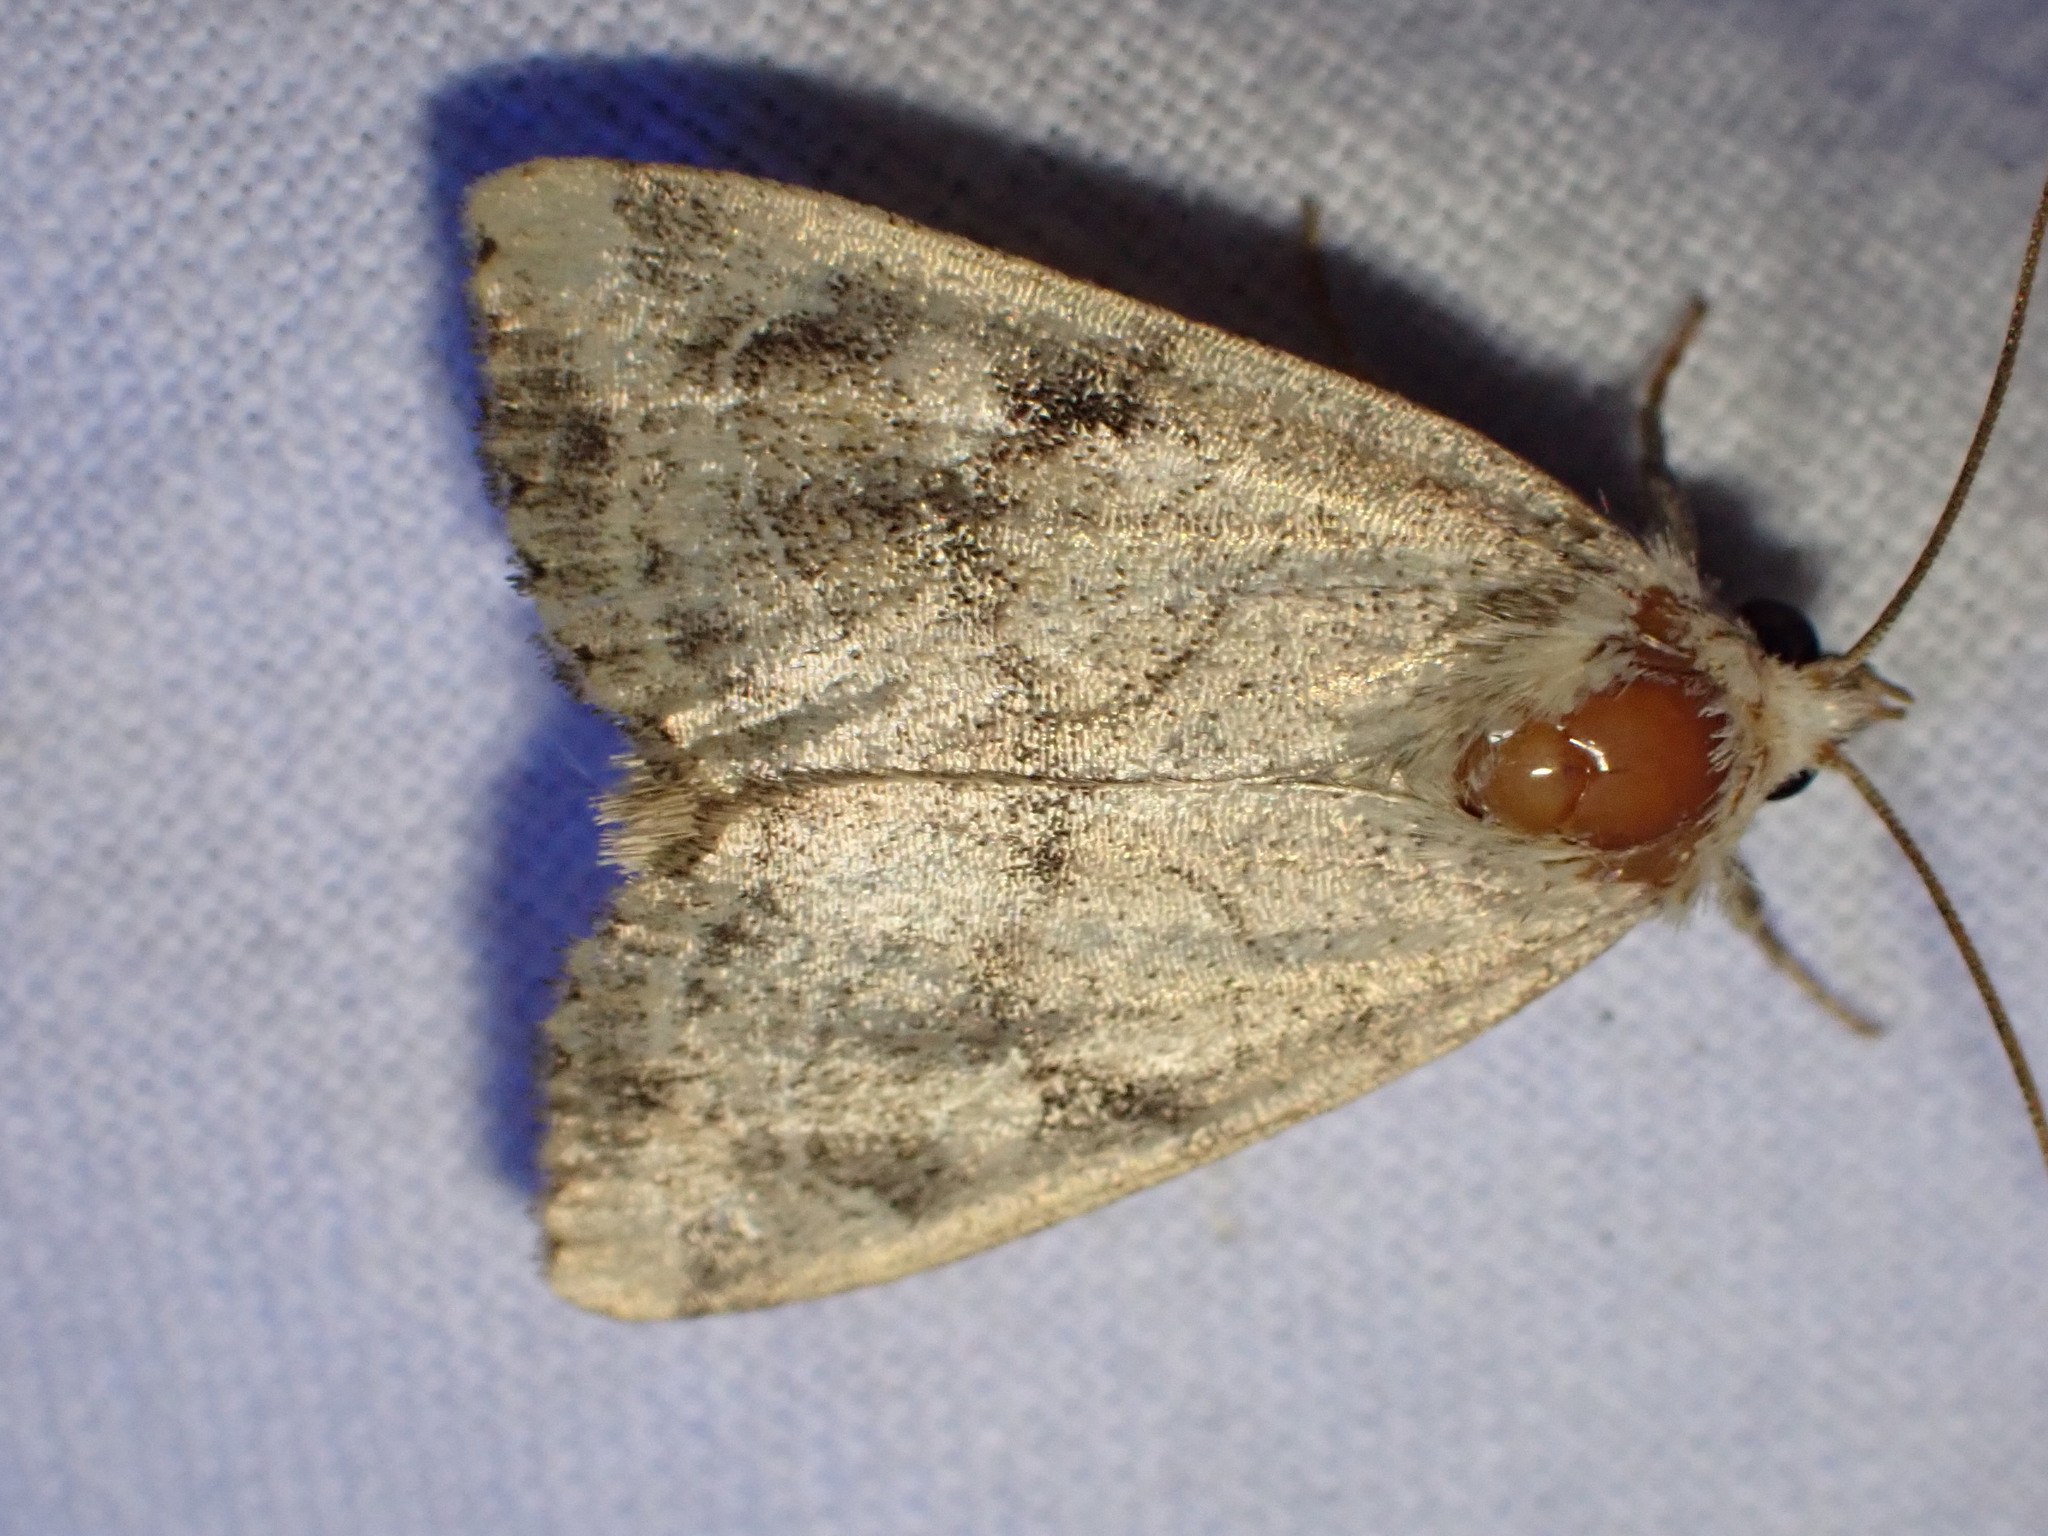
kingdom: Animalia
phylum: Arthropoda
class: Insecta
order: Lepidoptera
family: Noctuidae
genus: Cosmia
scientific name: Cosmia trapezina
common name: Dun-bar
